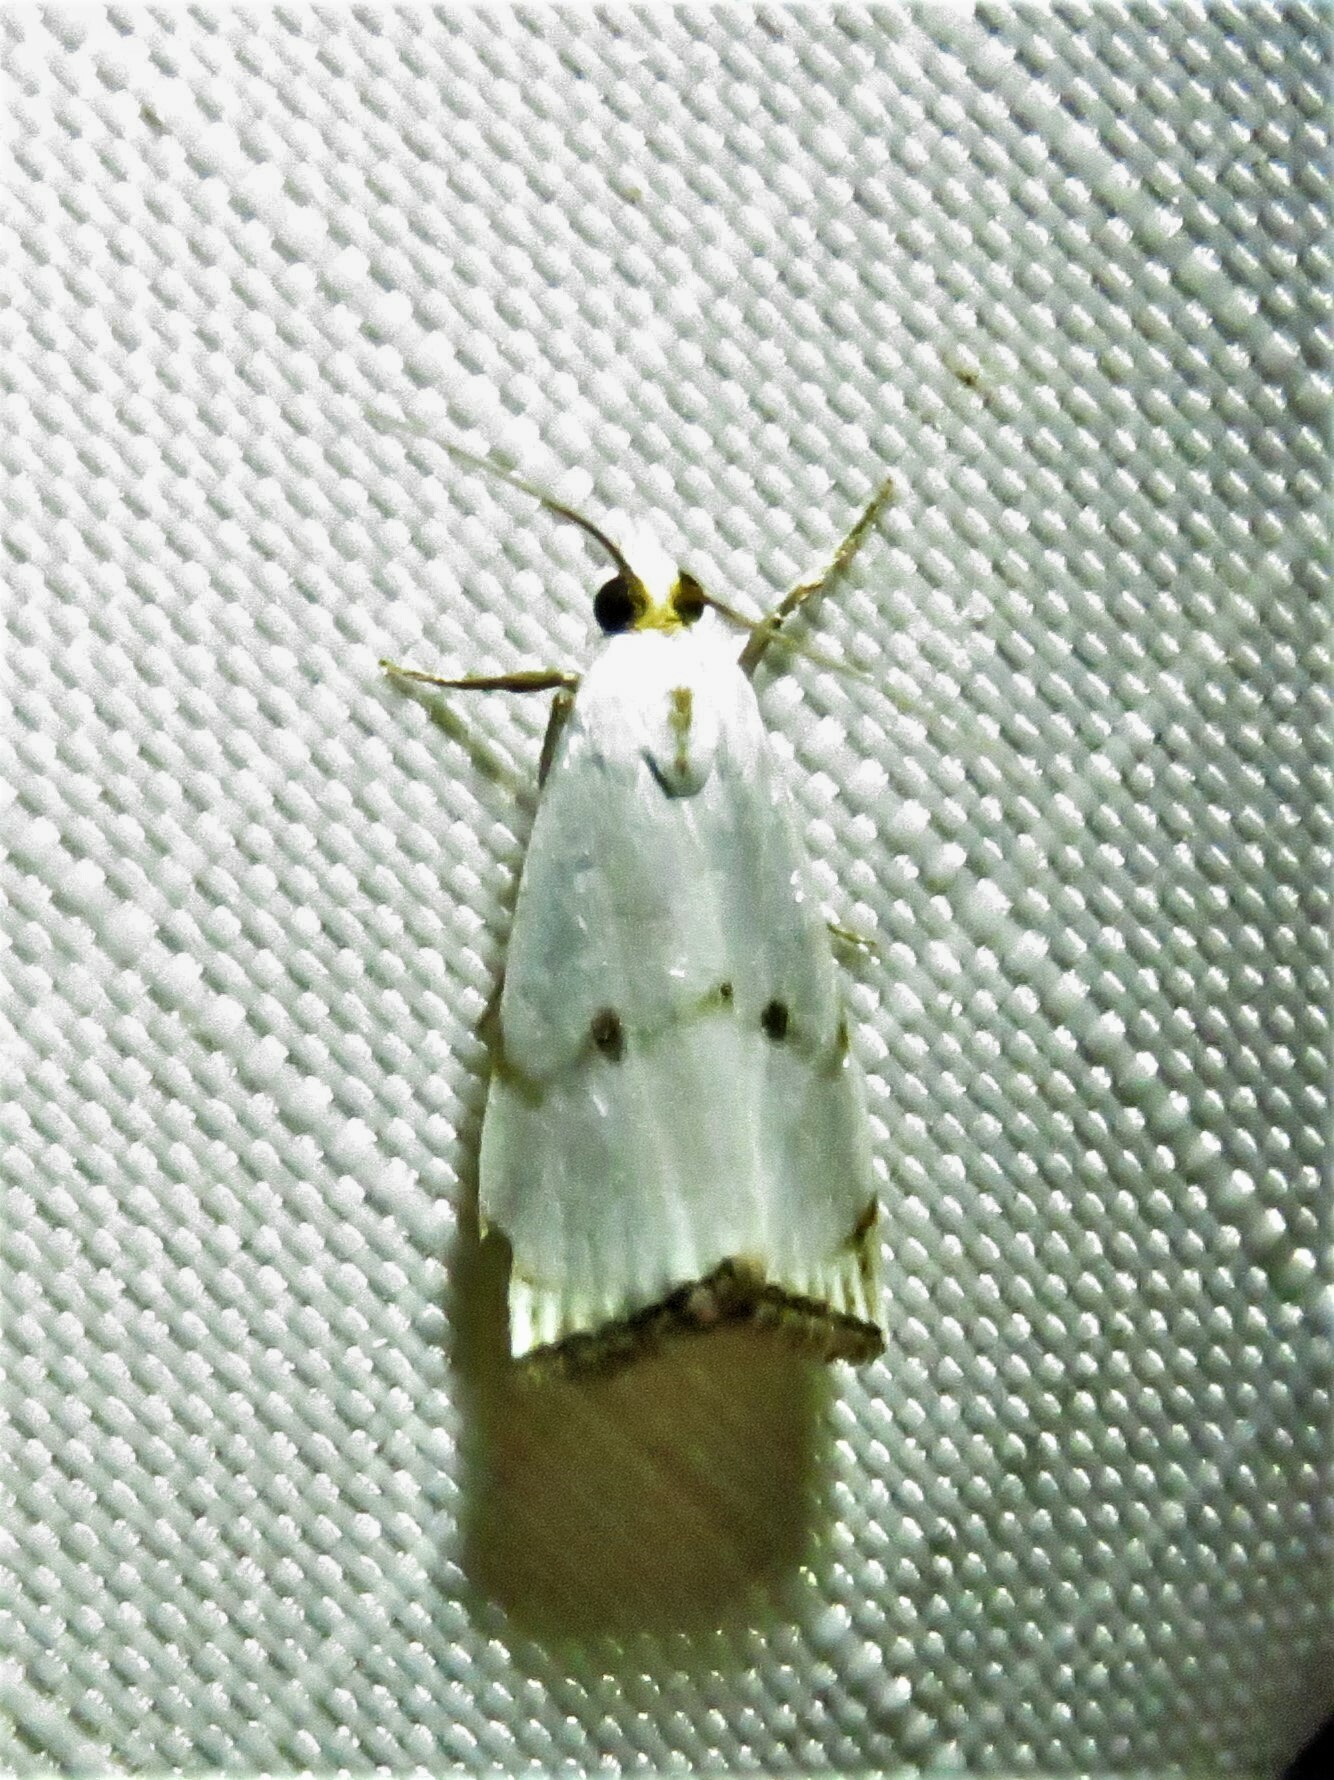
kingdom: Animalia
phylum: Arthropoda
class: Insecta
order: Lepidoptera
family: Crambidae
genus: Argyria
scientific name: Argyria pusillalis
